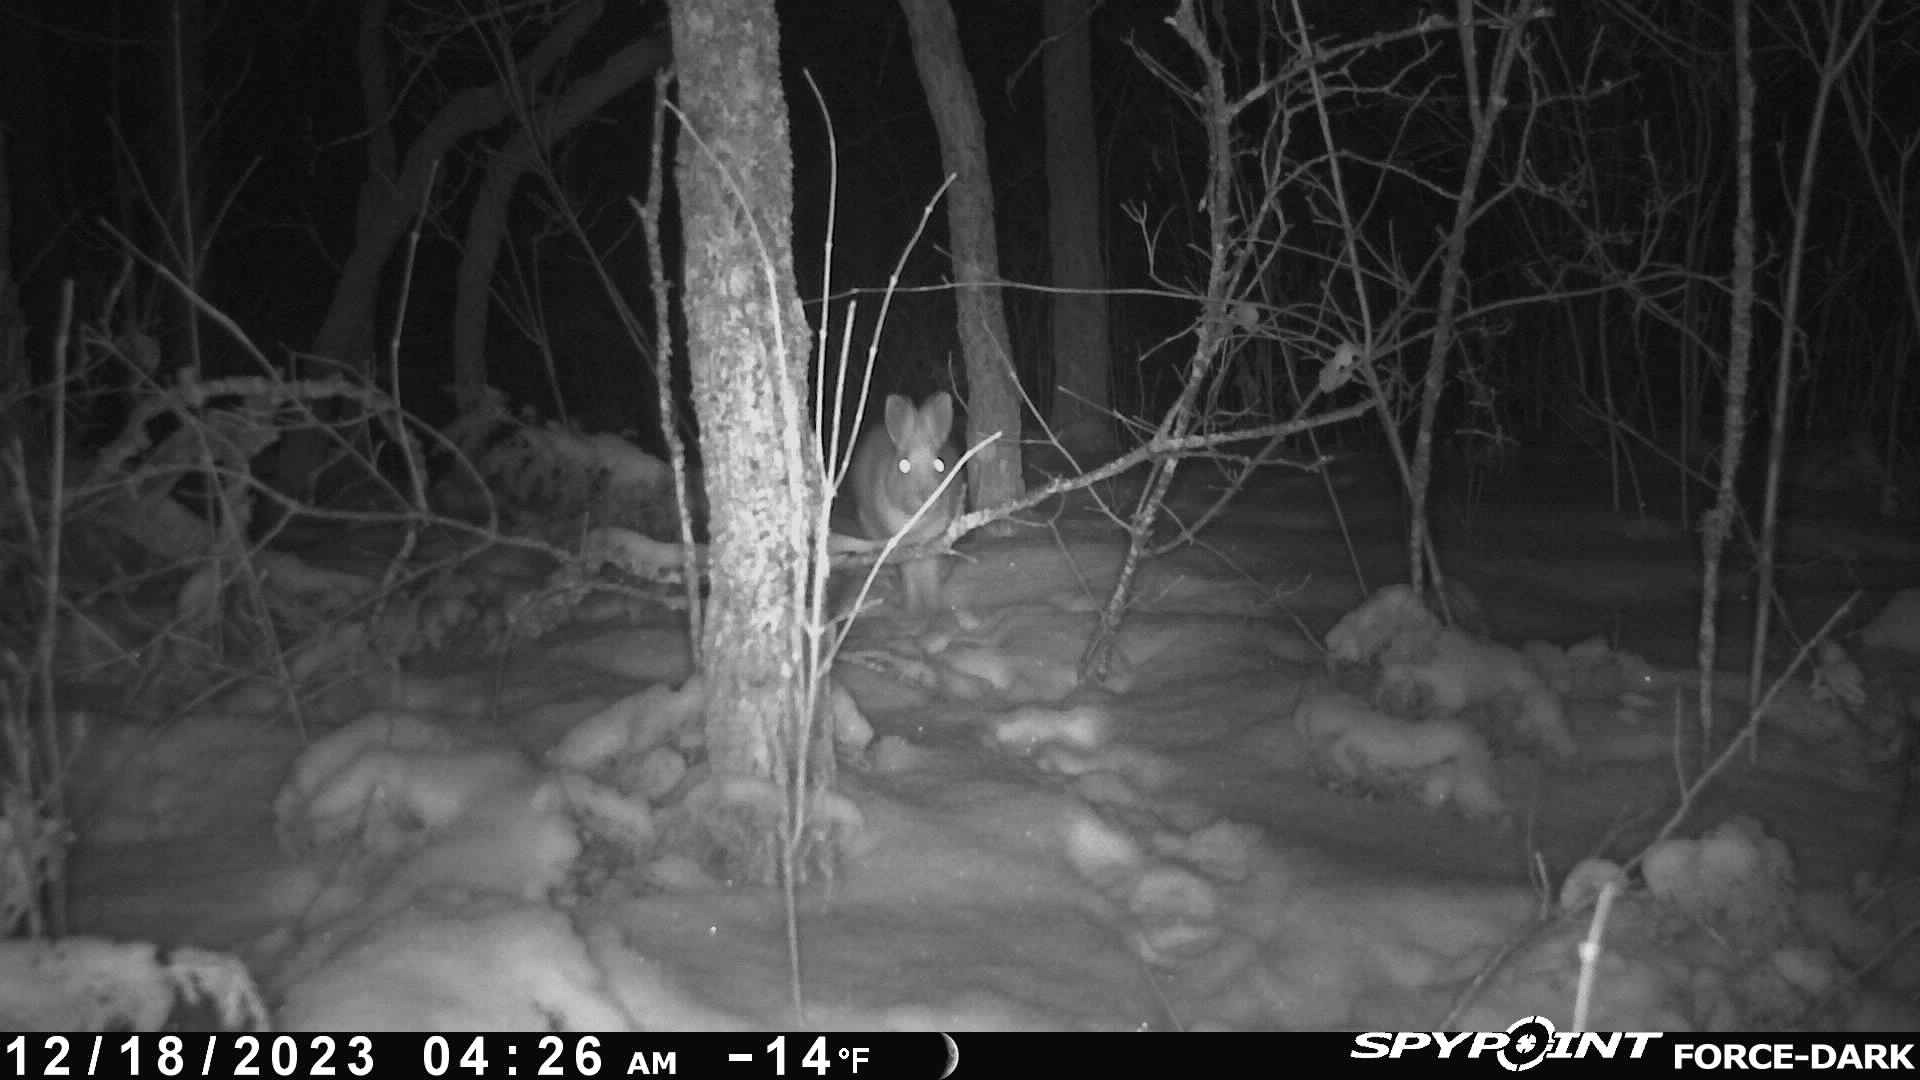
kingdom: Animalia
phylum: Chordata
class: Mammalia
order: Lagomorpha
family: Leporidae
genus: Lepus
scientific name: Lepus americanus
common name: Snowshoe hare
